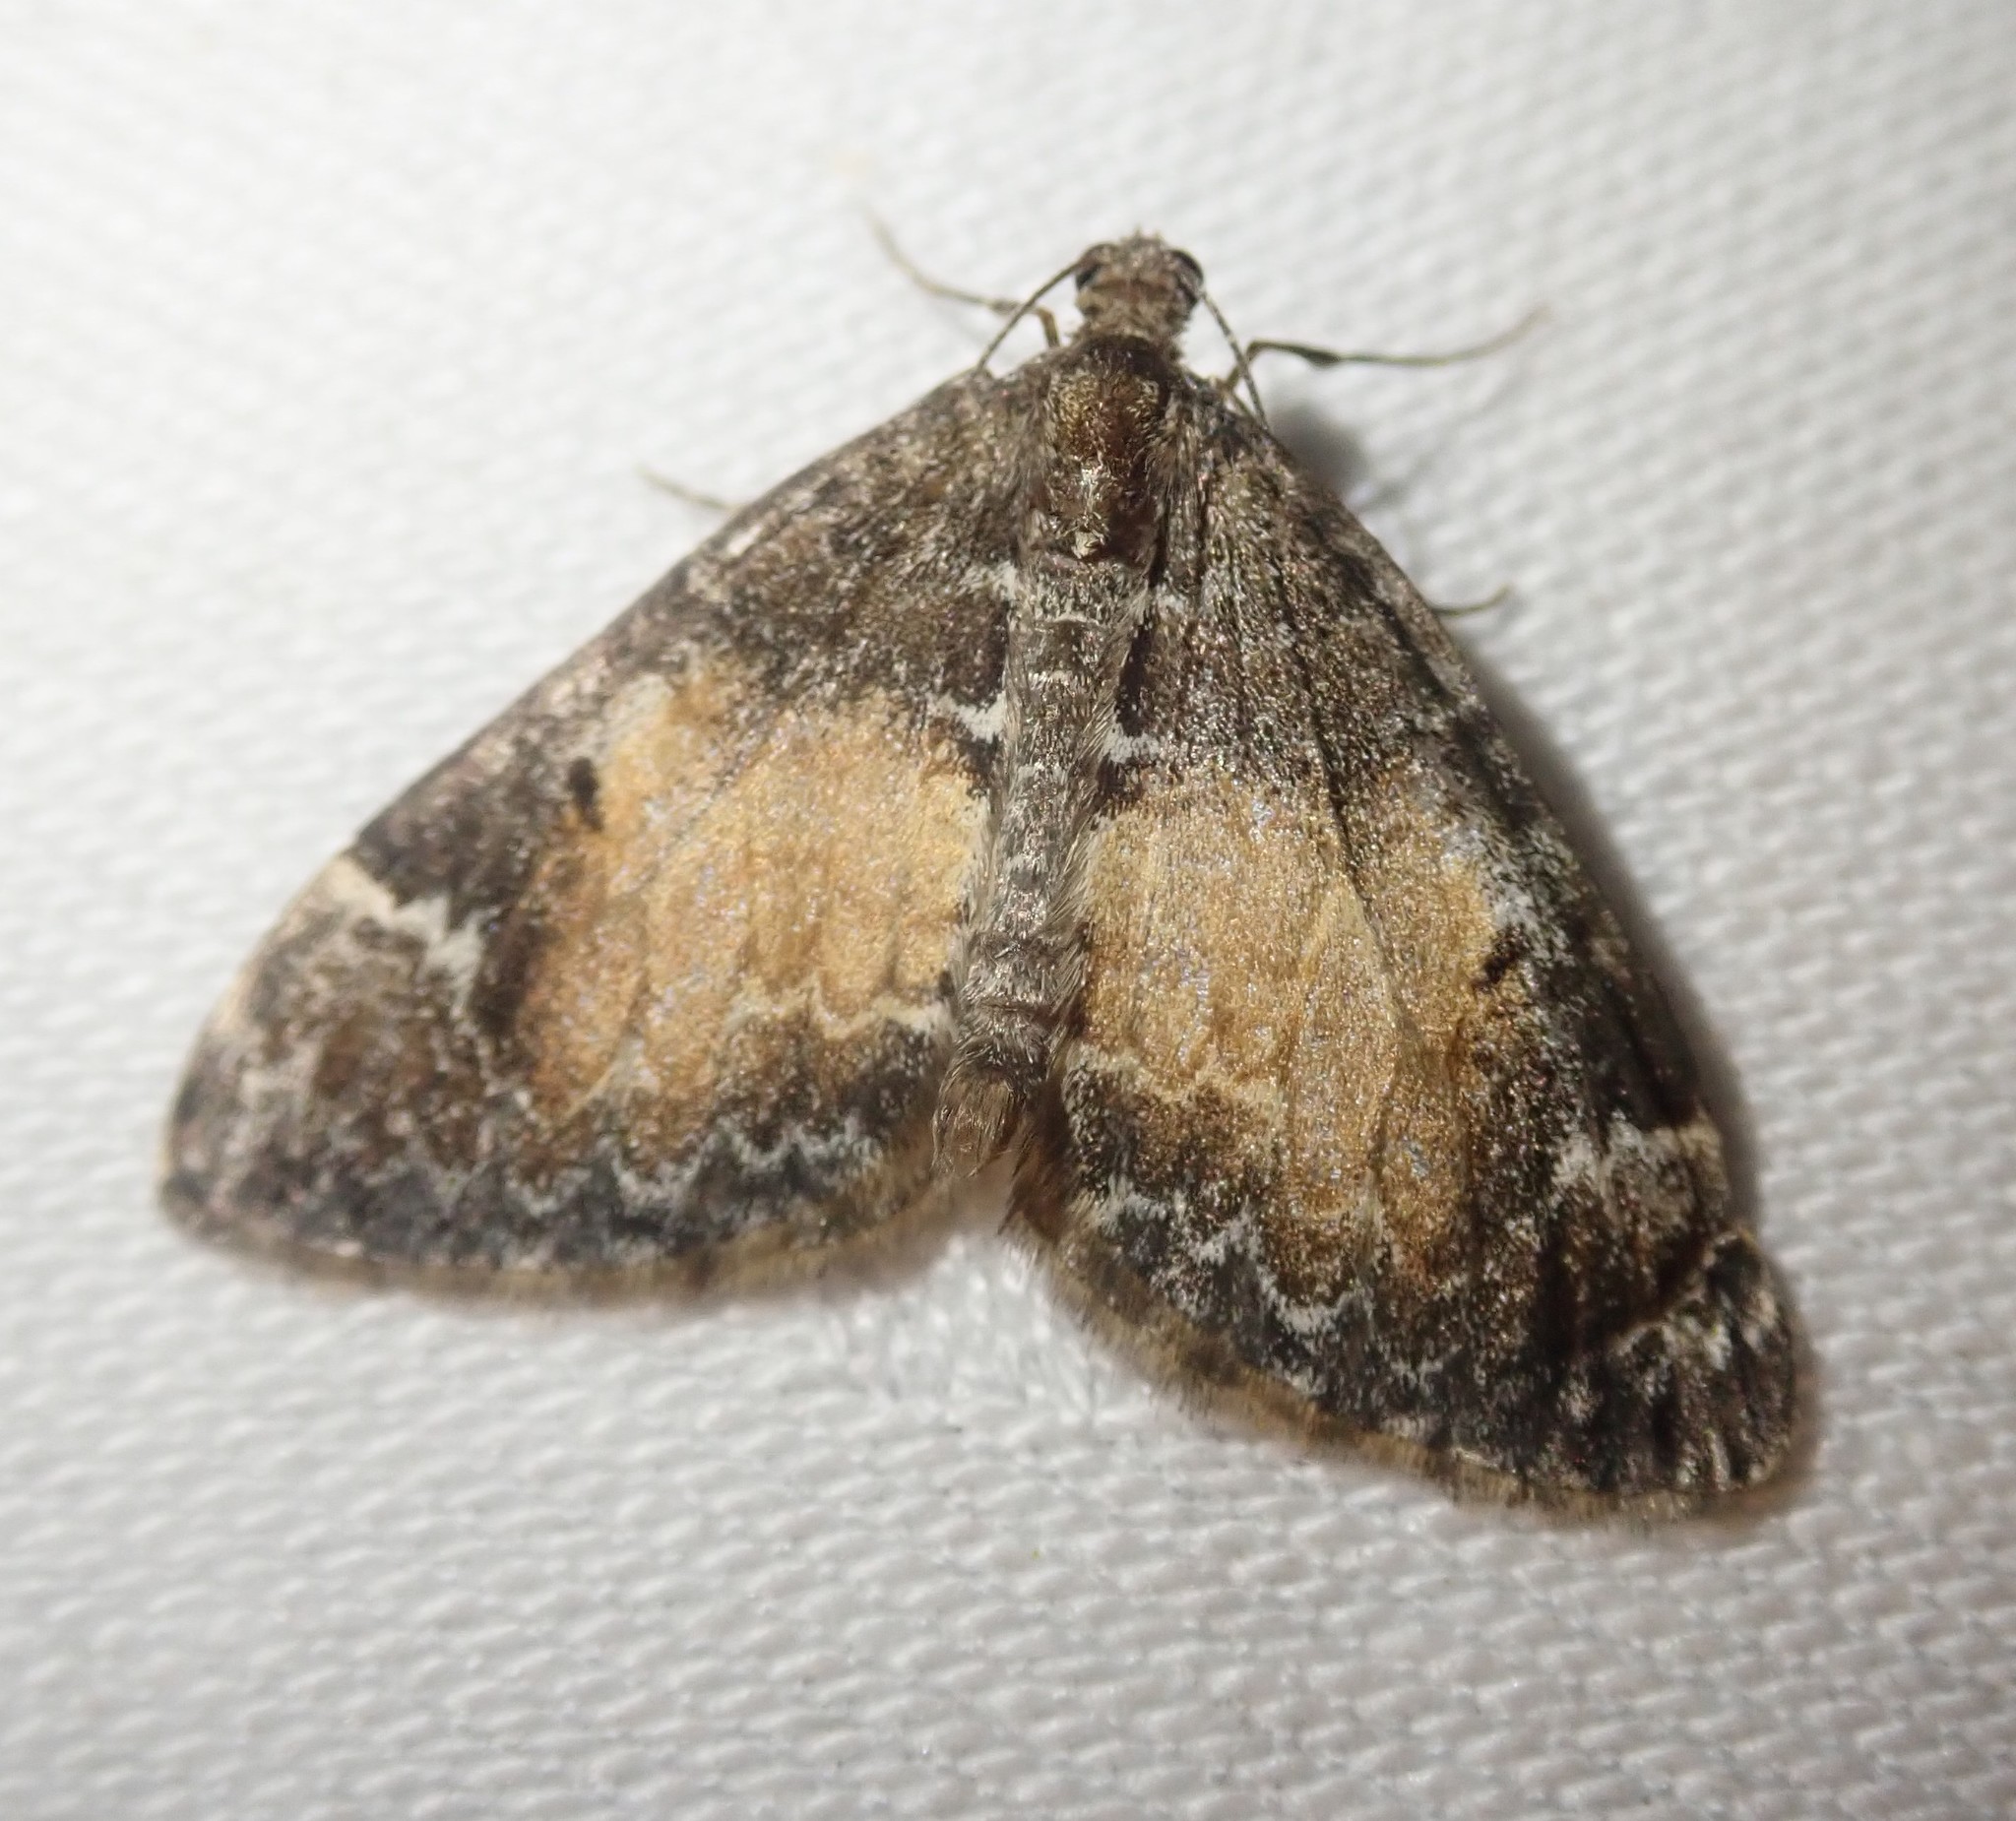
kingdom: Animalia
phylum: Arthropoda
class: Insecta
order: Lepidoptera
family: Geometridae
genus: Dysstroma
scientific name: Dysstroma truncata
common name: Common marbled carpet
